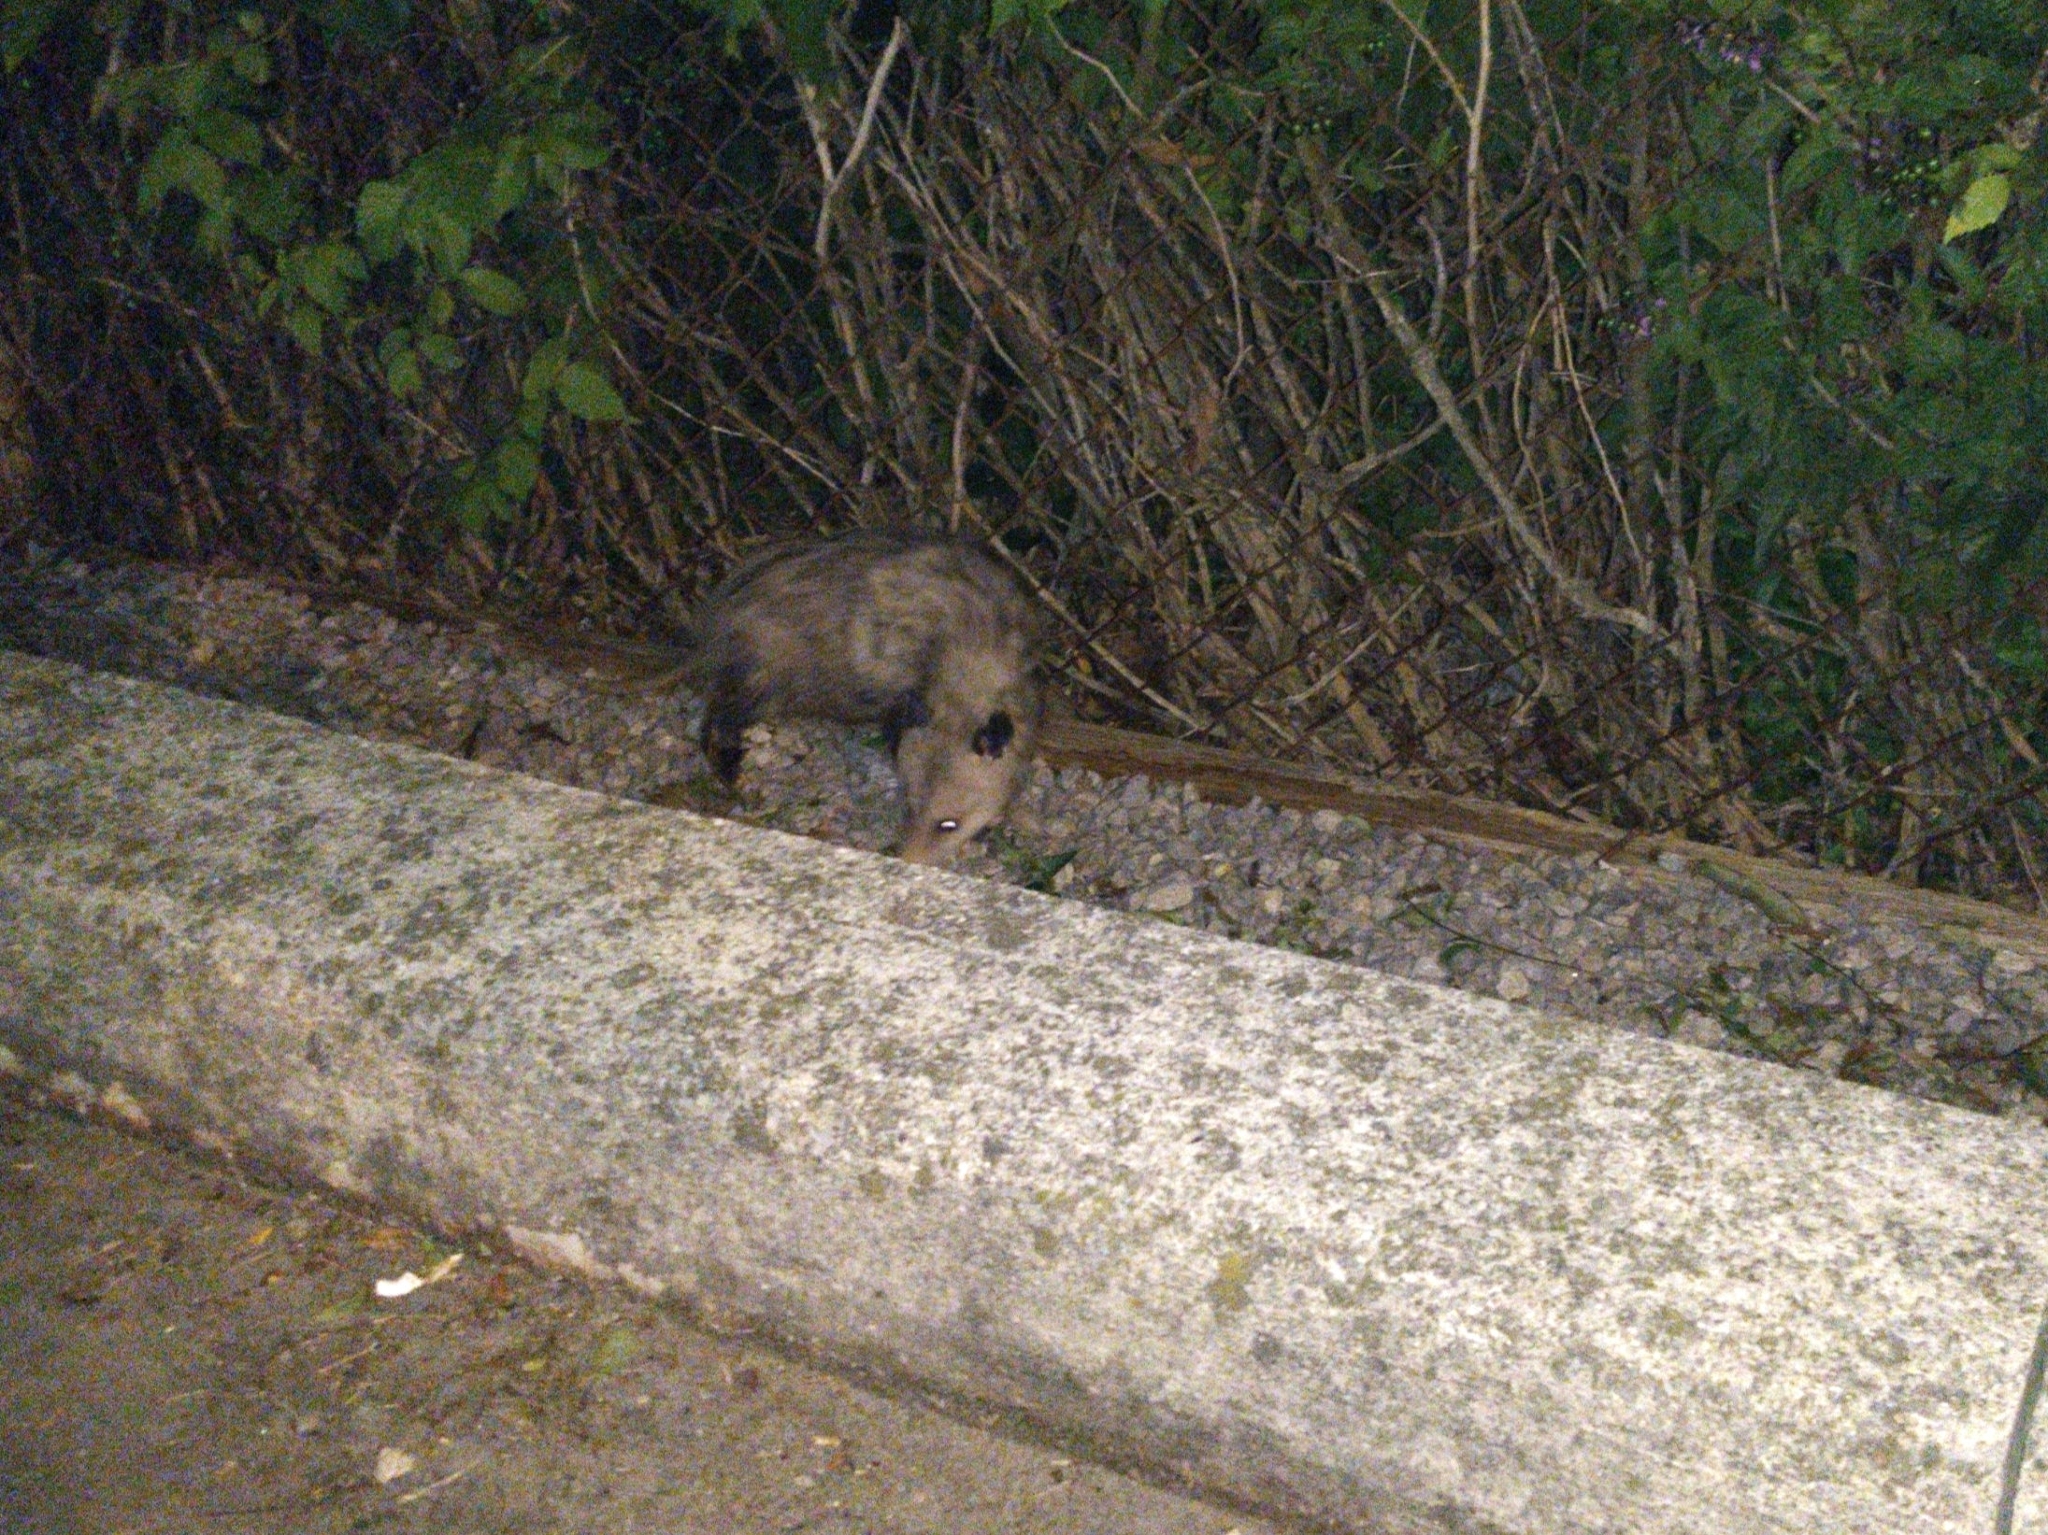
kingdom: Animalia
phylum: Chordata
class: Mammalia
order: Didelphimorphia
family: Didelphidae
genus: Didelphis
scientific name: Didelphis virginiana
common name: Virginia opossum
